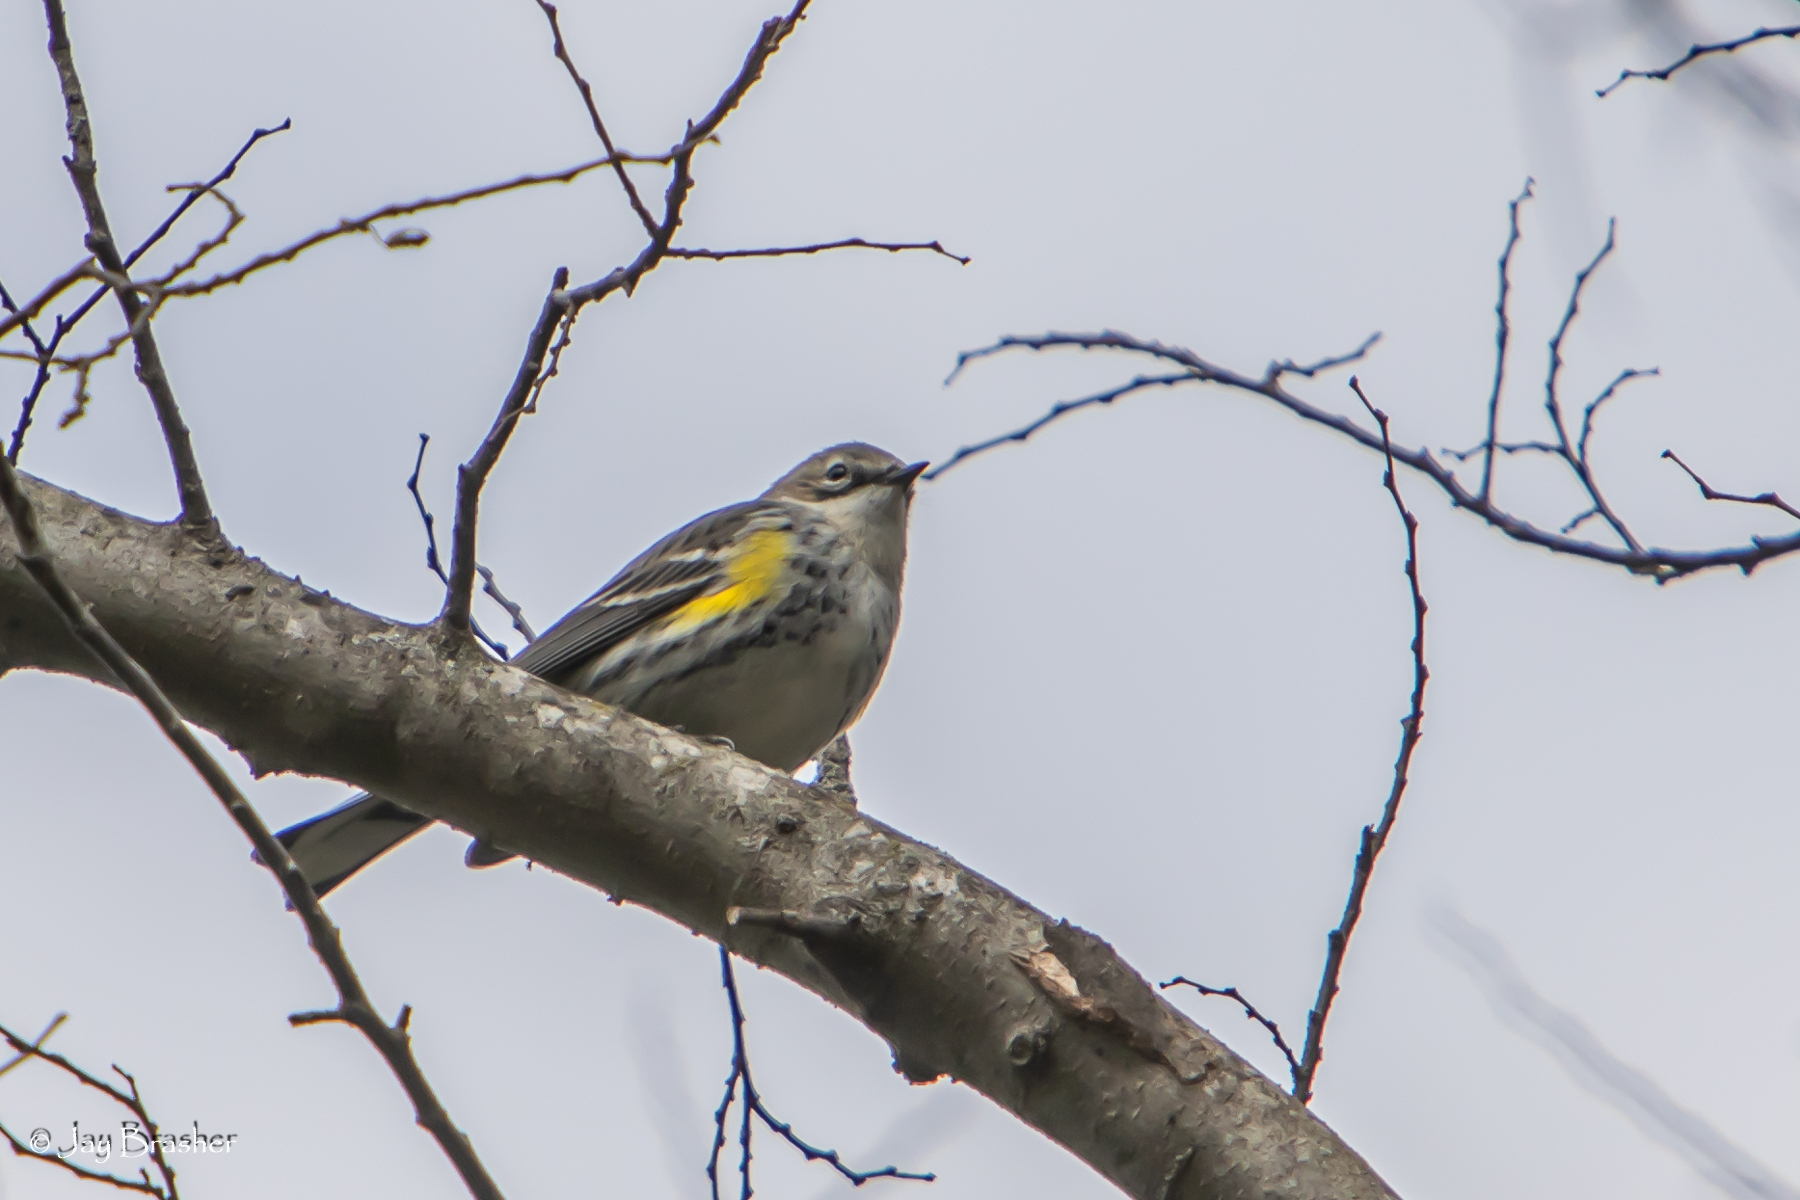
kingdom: Animalia
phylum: Chordata
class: Aves
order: Passeriformes
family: Parulidae
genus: Setophaga
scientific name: Setophaga coronata
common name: Myrtle warbler
